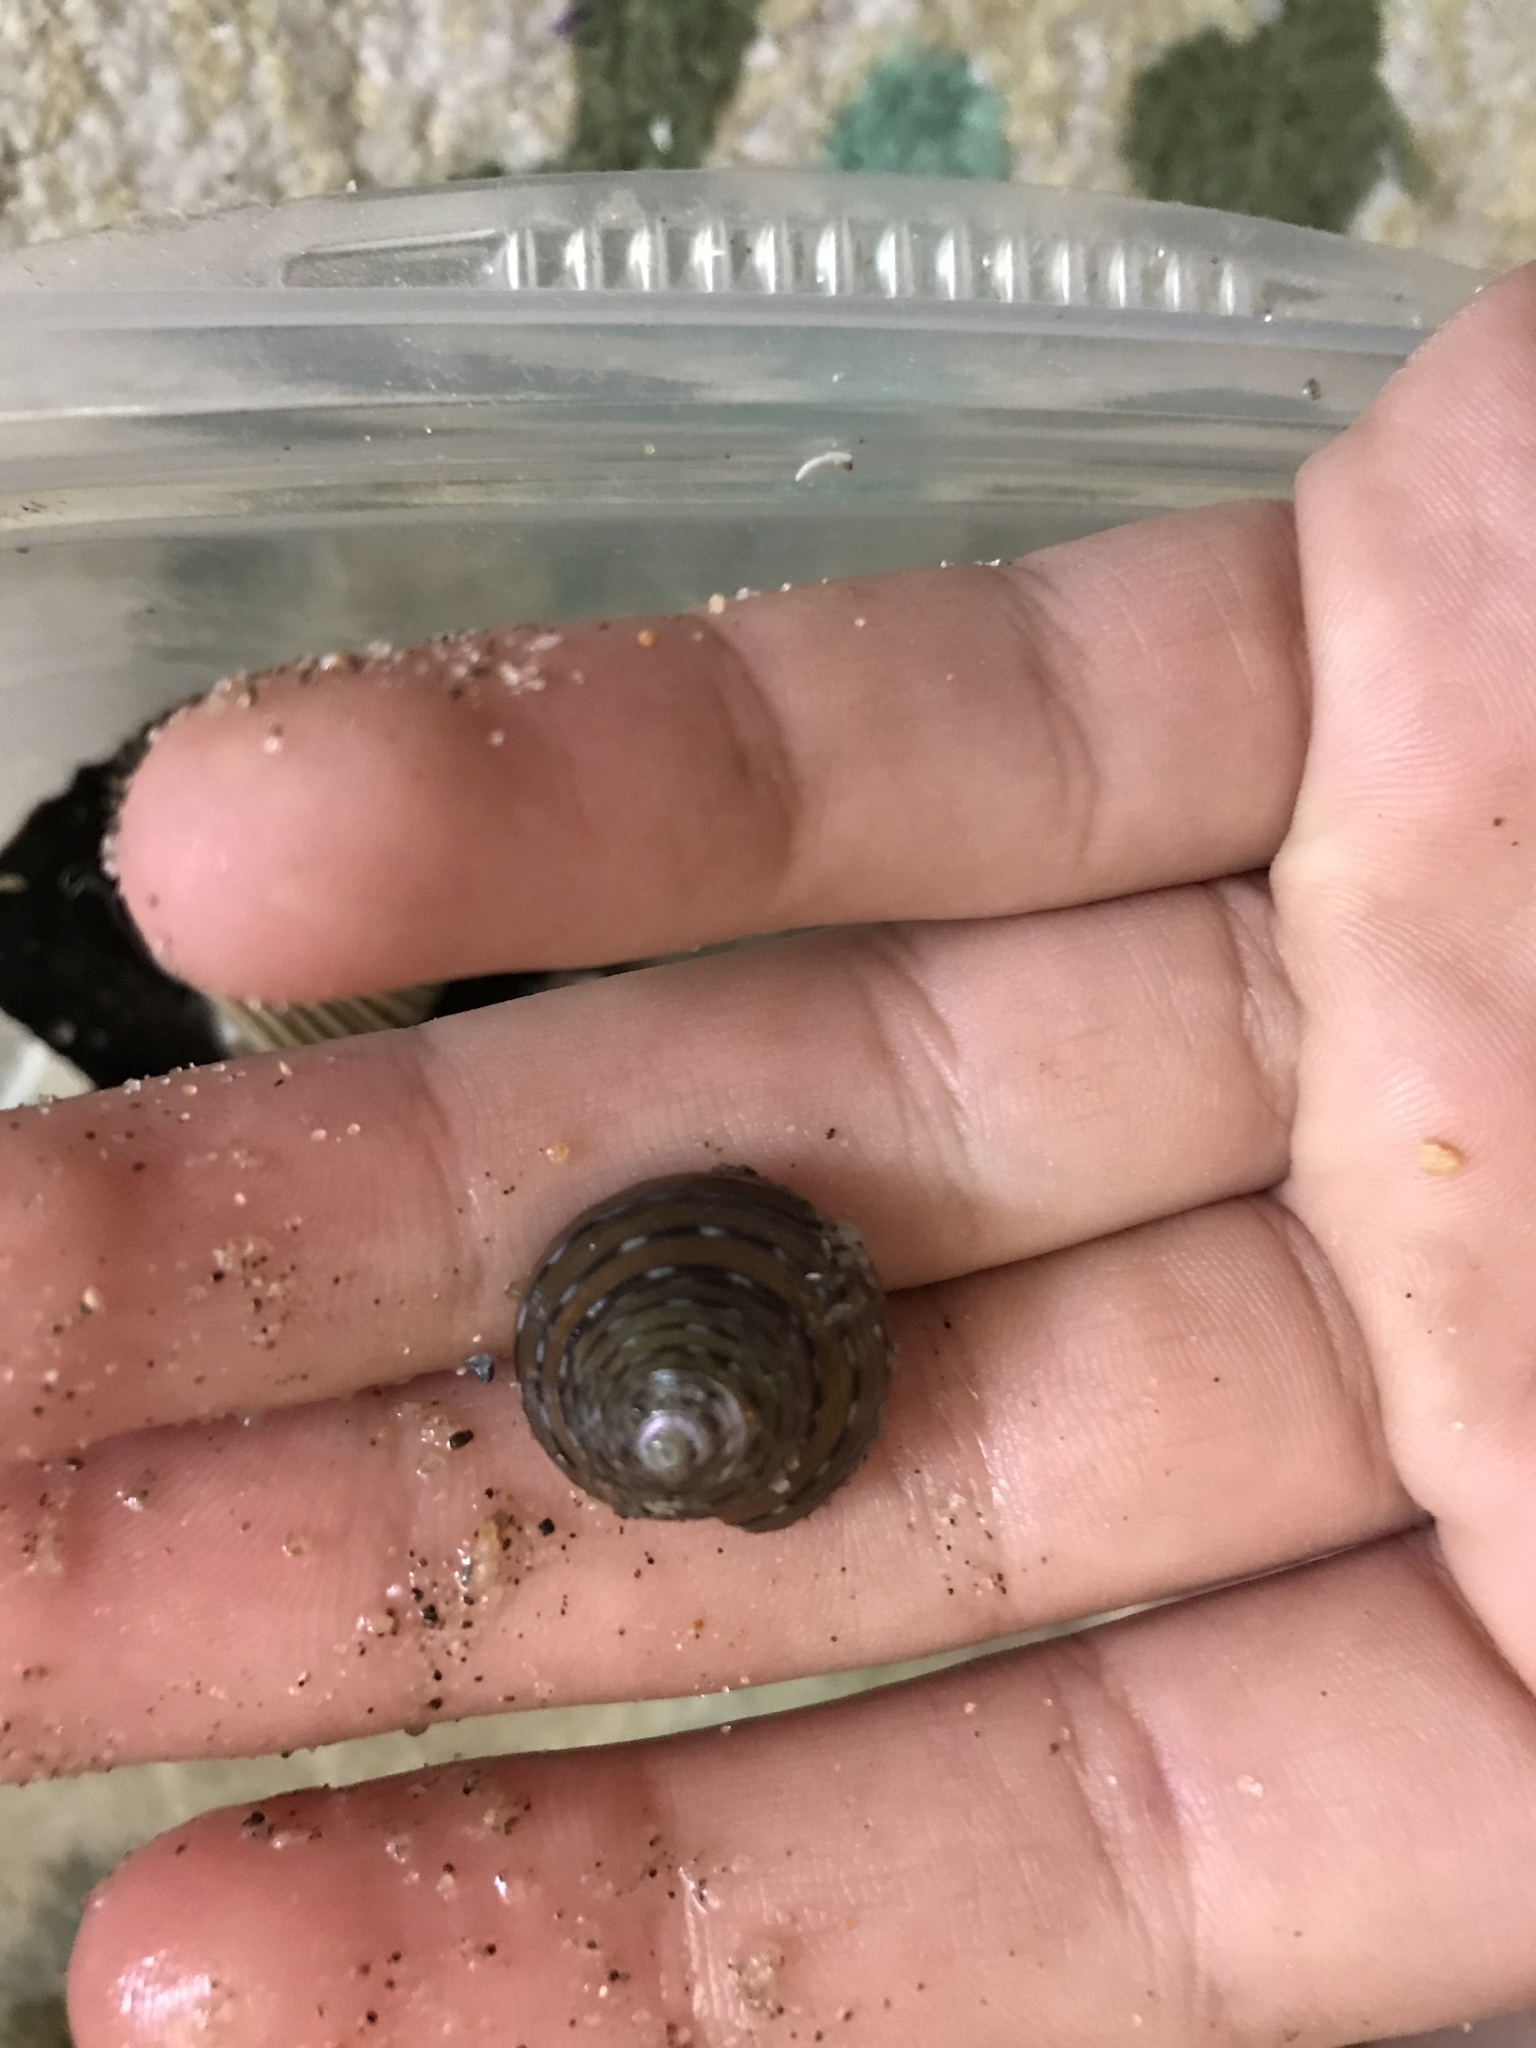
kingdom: Animalia
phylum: Mollusca
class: Gastropoda
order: Trochida
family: Calliostomatidae
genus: Calliostoma
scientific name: Calliostoma tricolor
